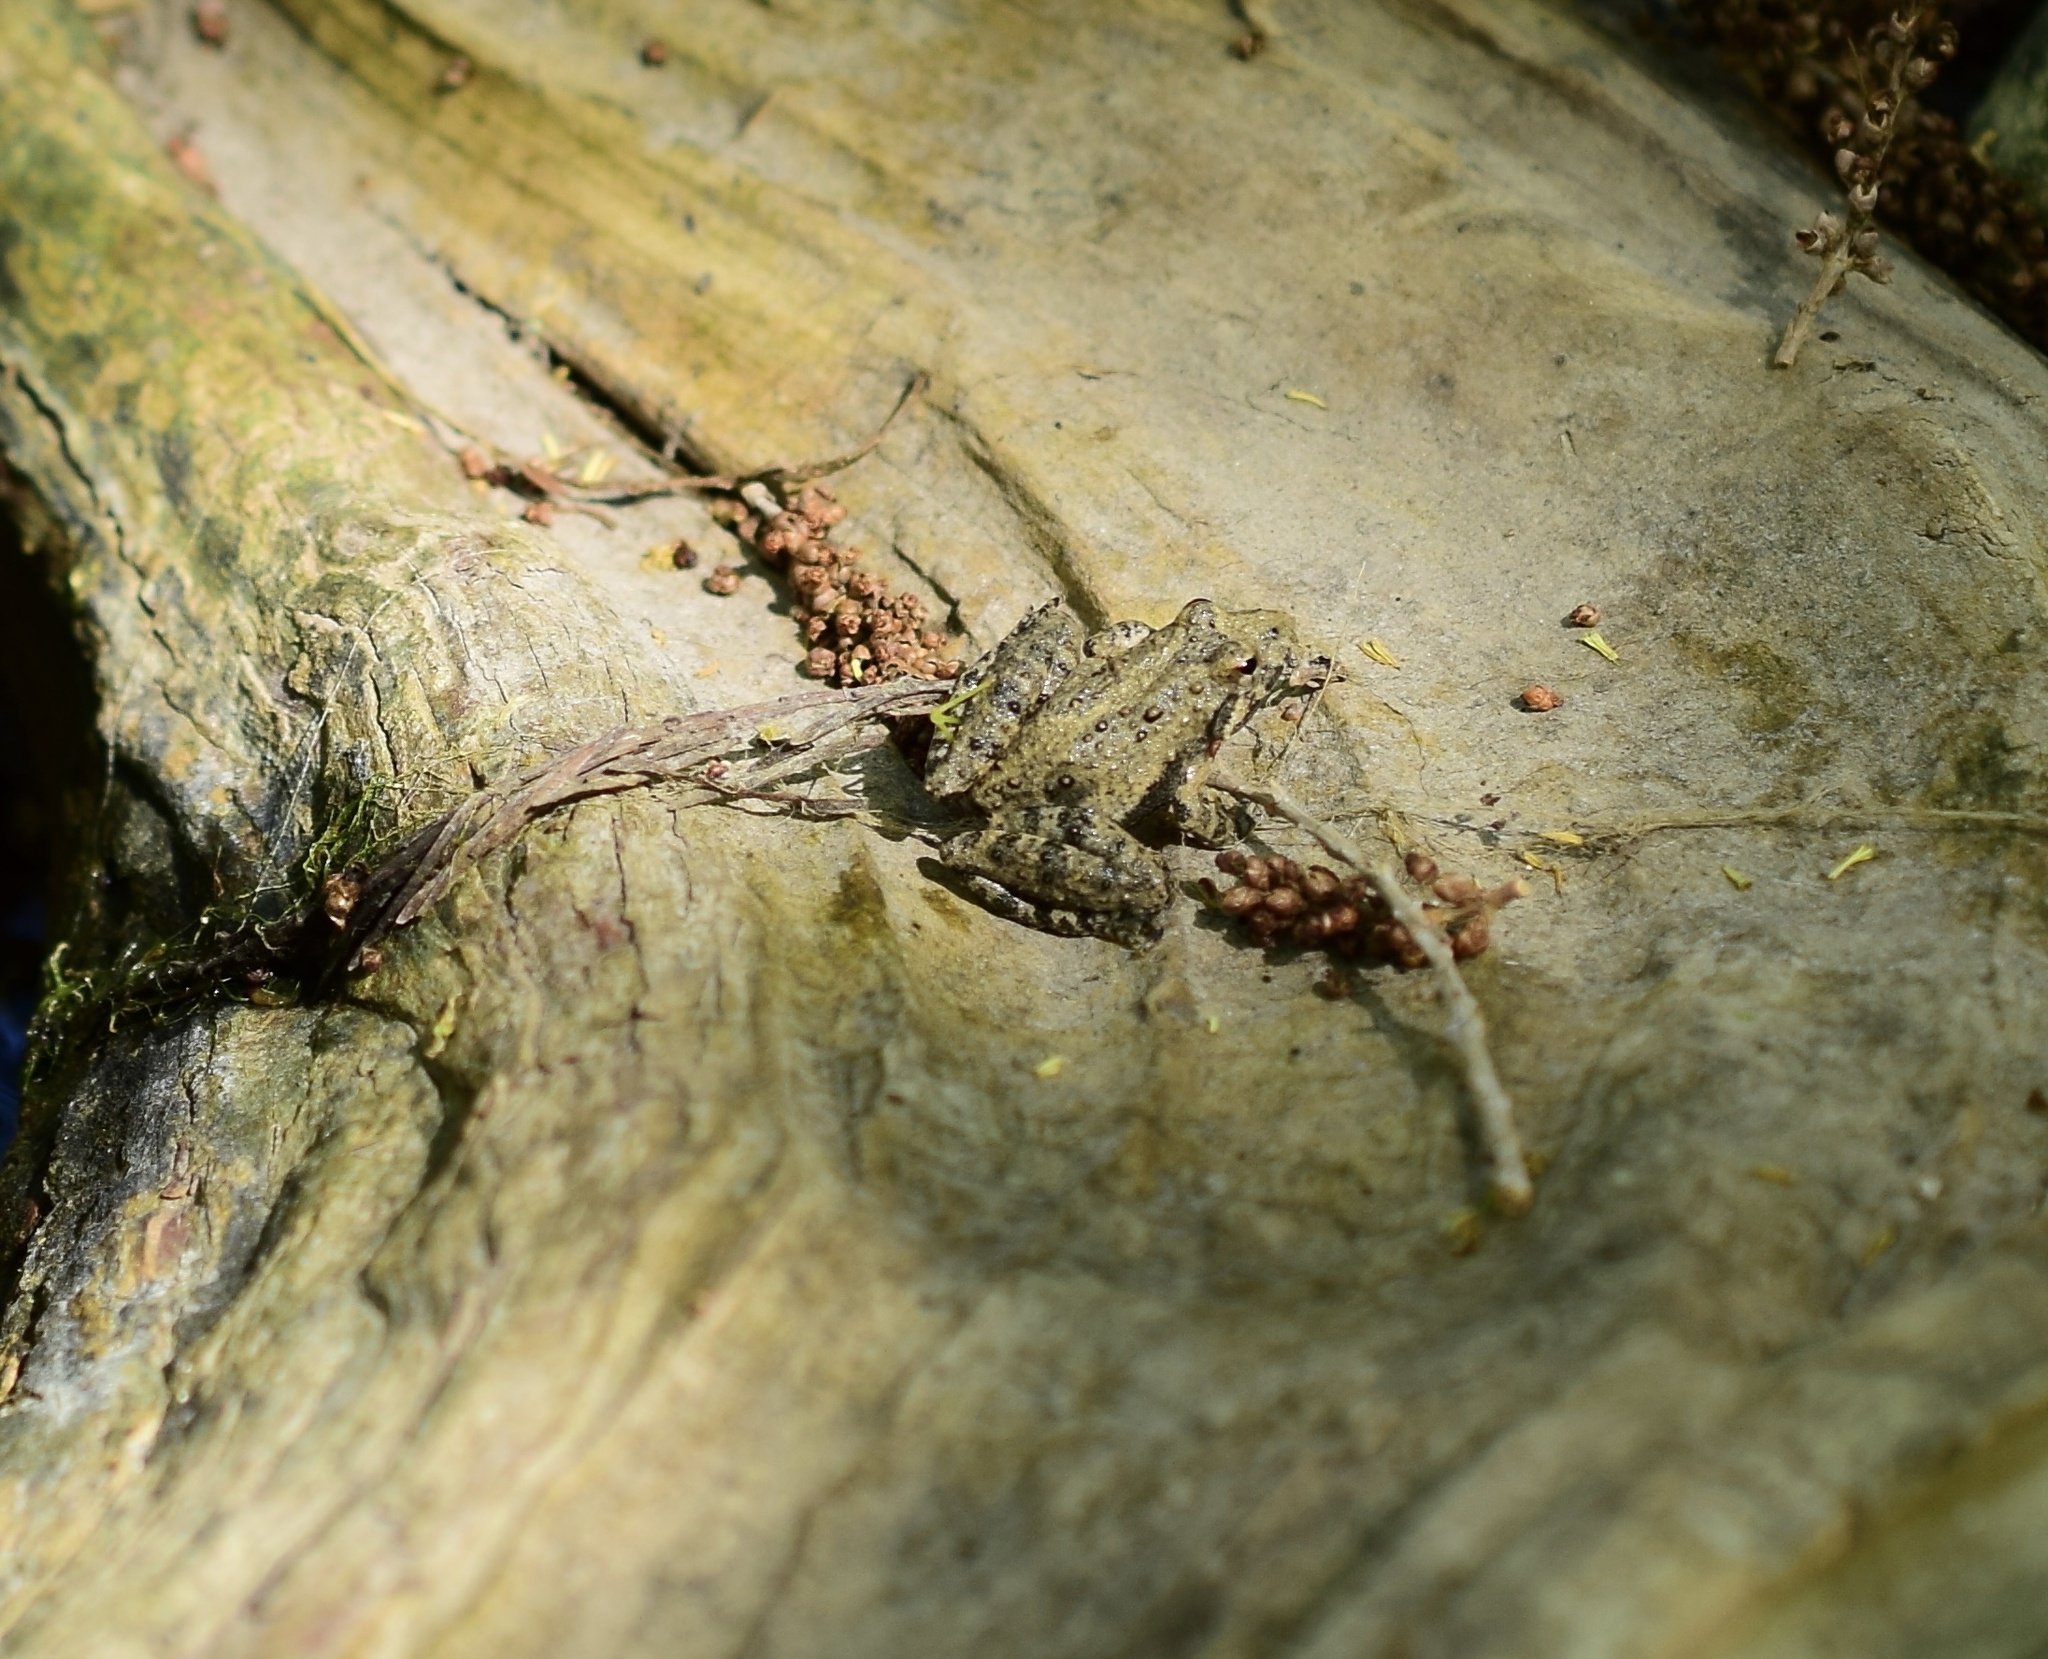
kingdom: Animalia
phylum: Chordata
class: Amphibia
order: Anura
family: Hylidae
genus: Acris
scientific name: Acris blanchardi
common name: Blanchard's cricket frog
